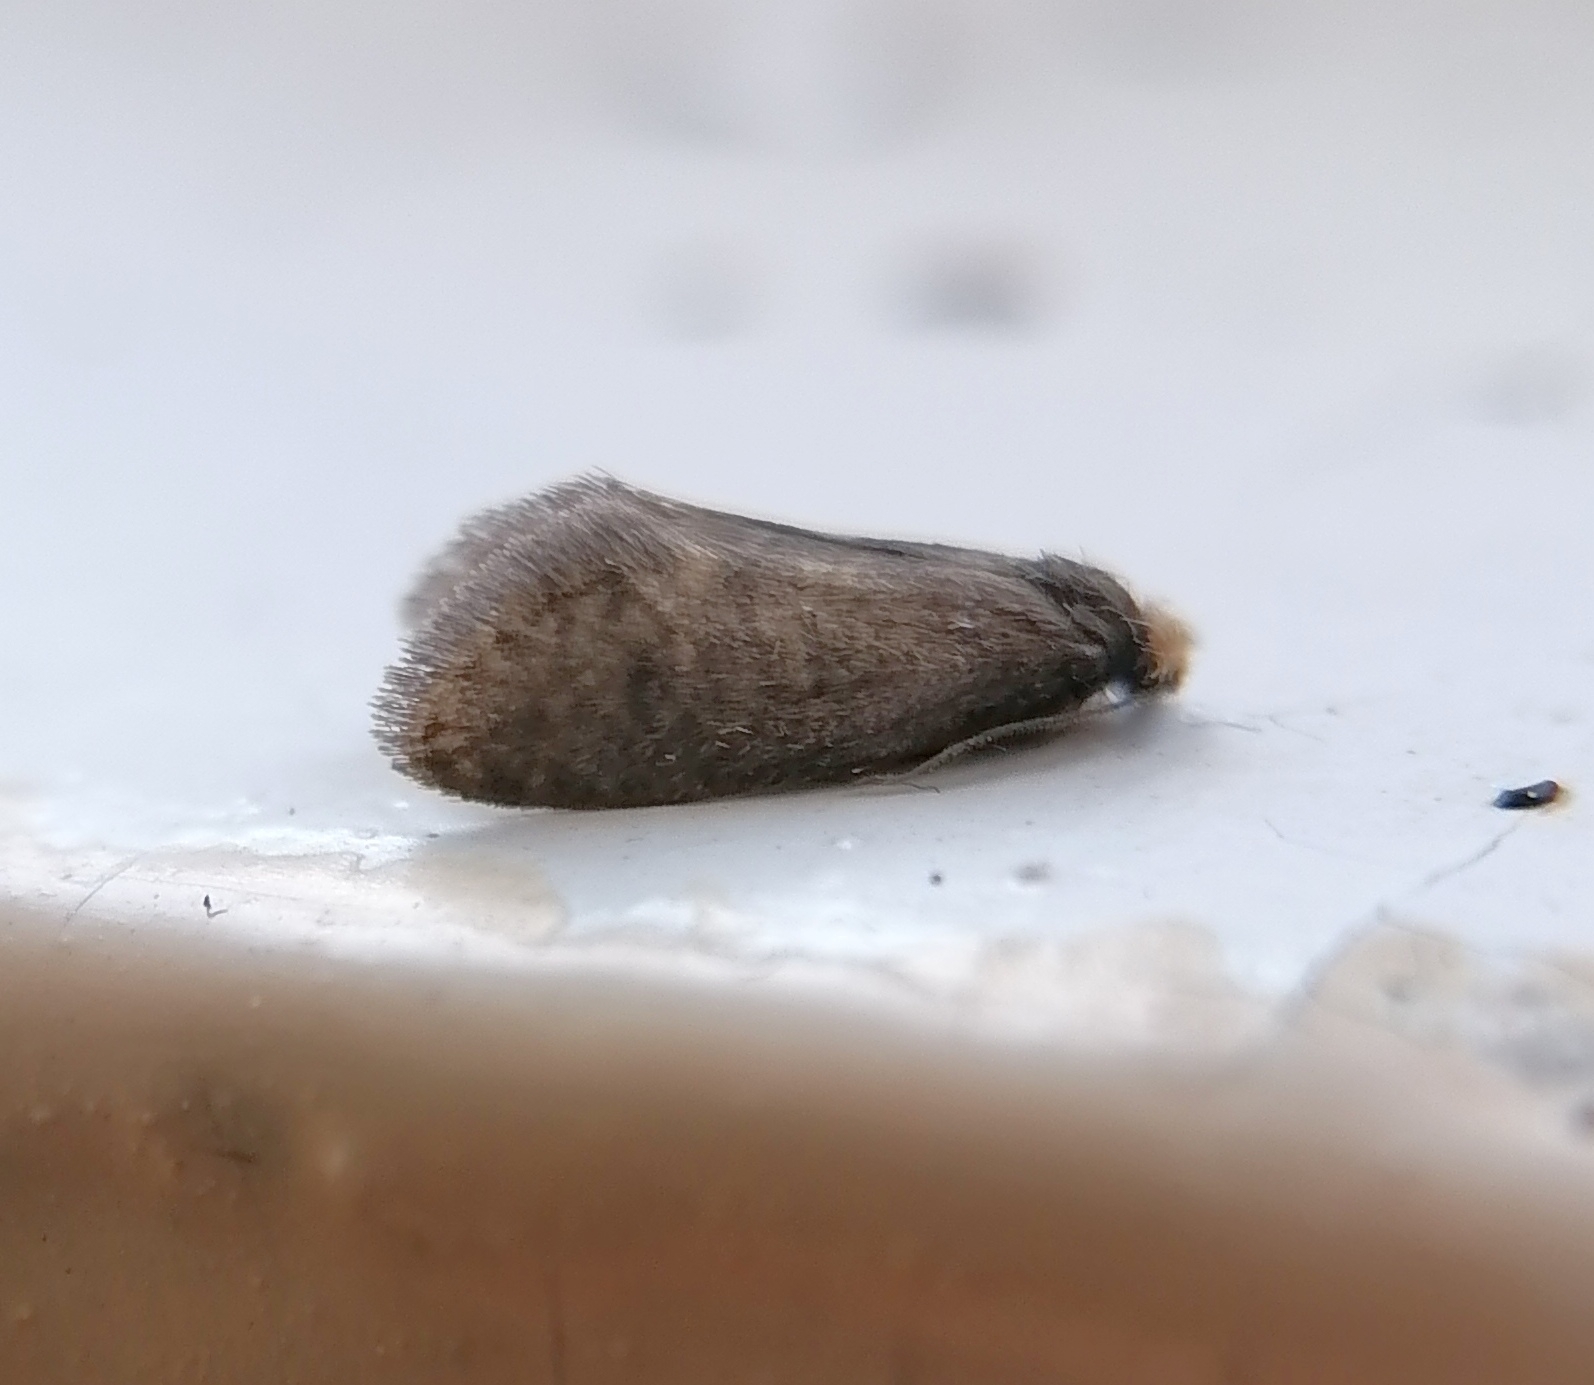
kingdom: Animalia
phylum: Arthropoda
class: Insecta
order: Lepidoptera
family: Psychidae
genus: Taleporia
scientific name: Taleporia tubulosa
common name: Brown smoke
